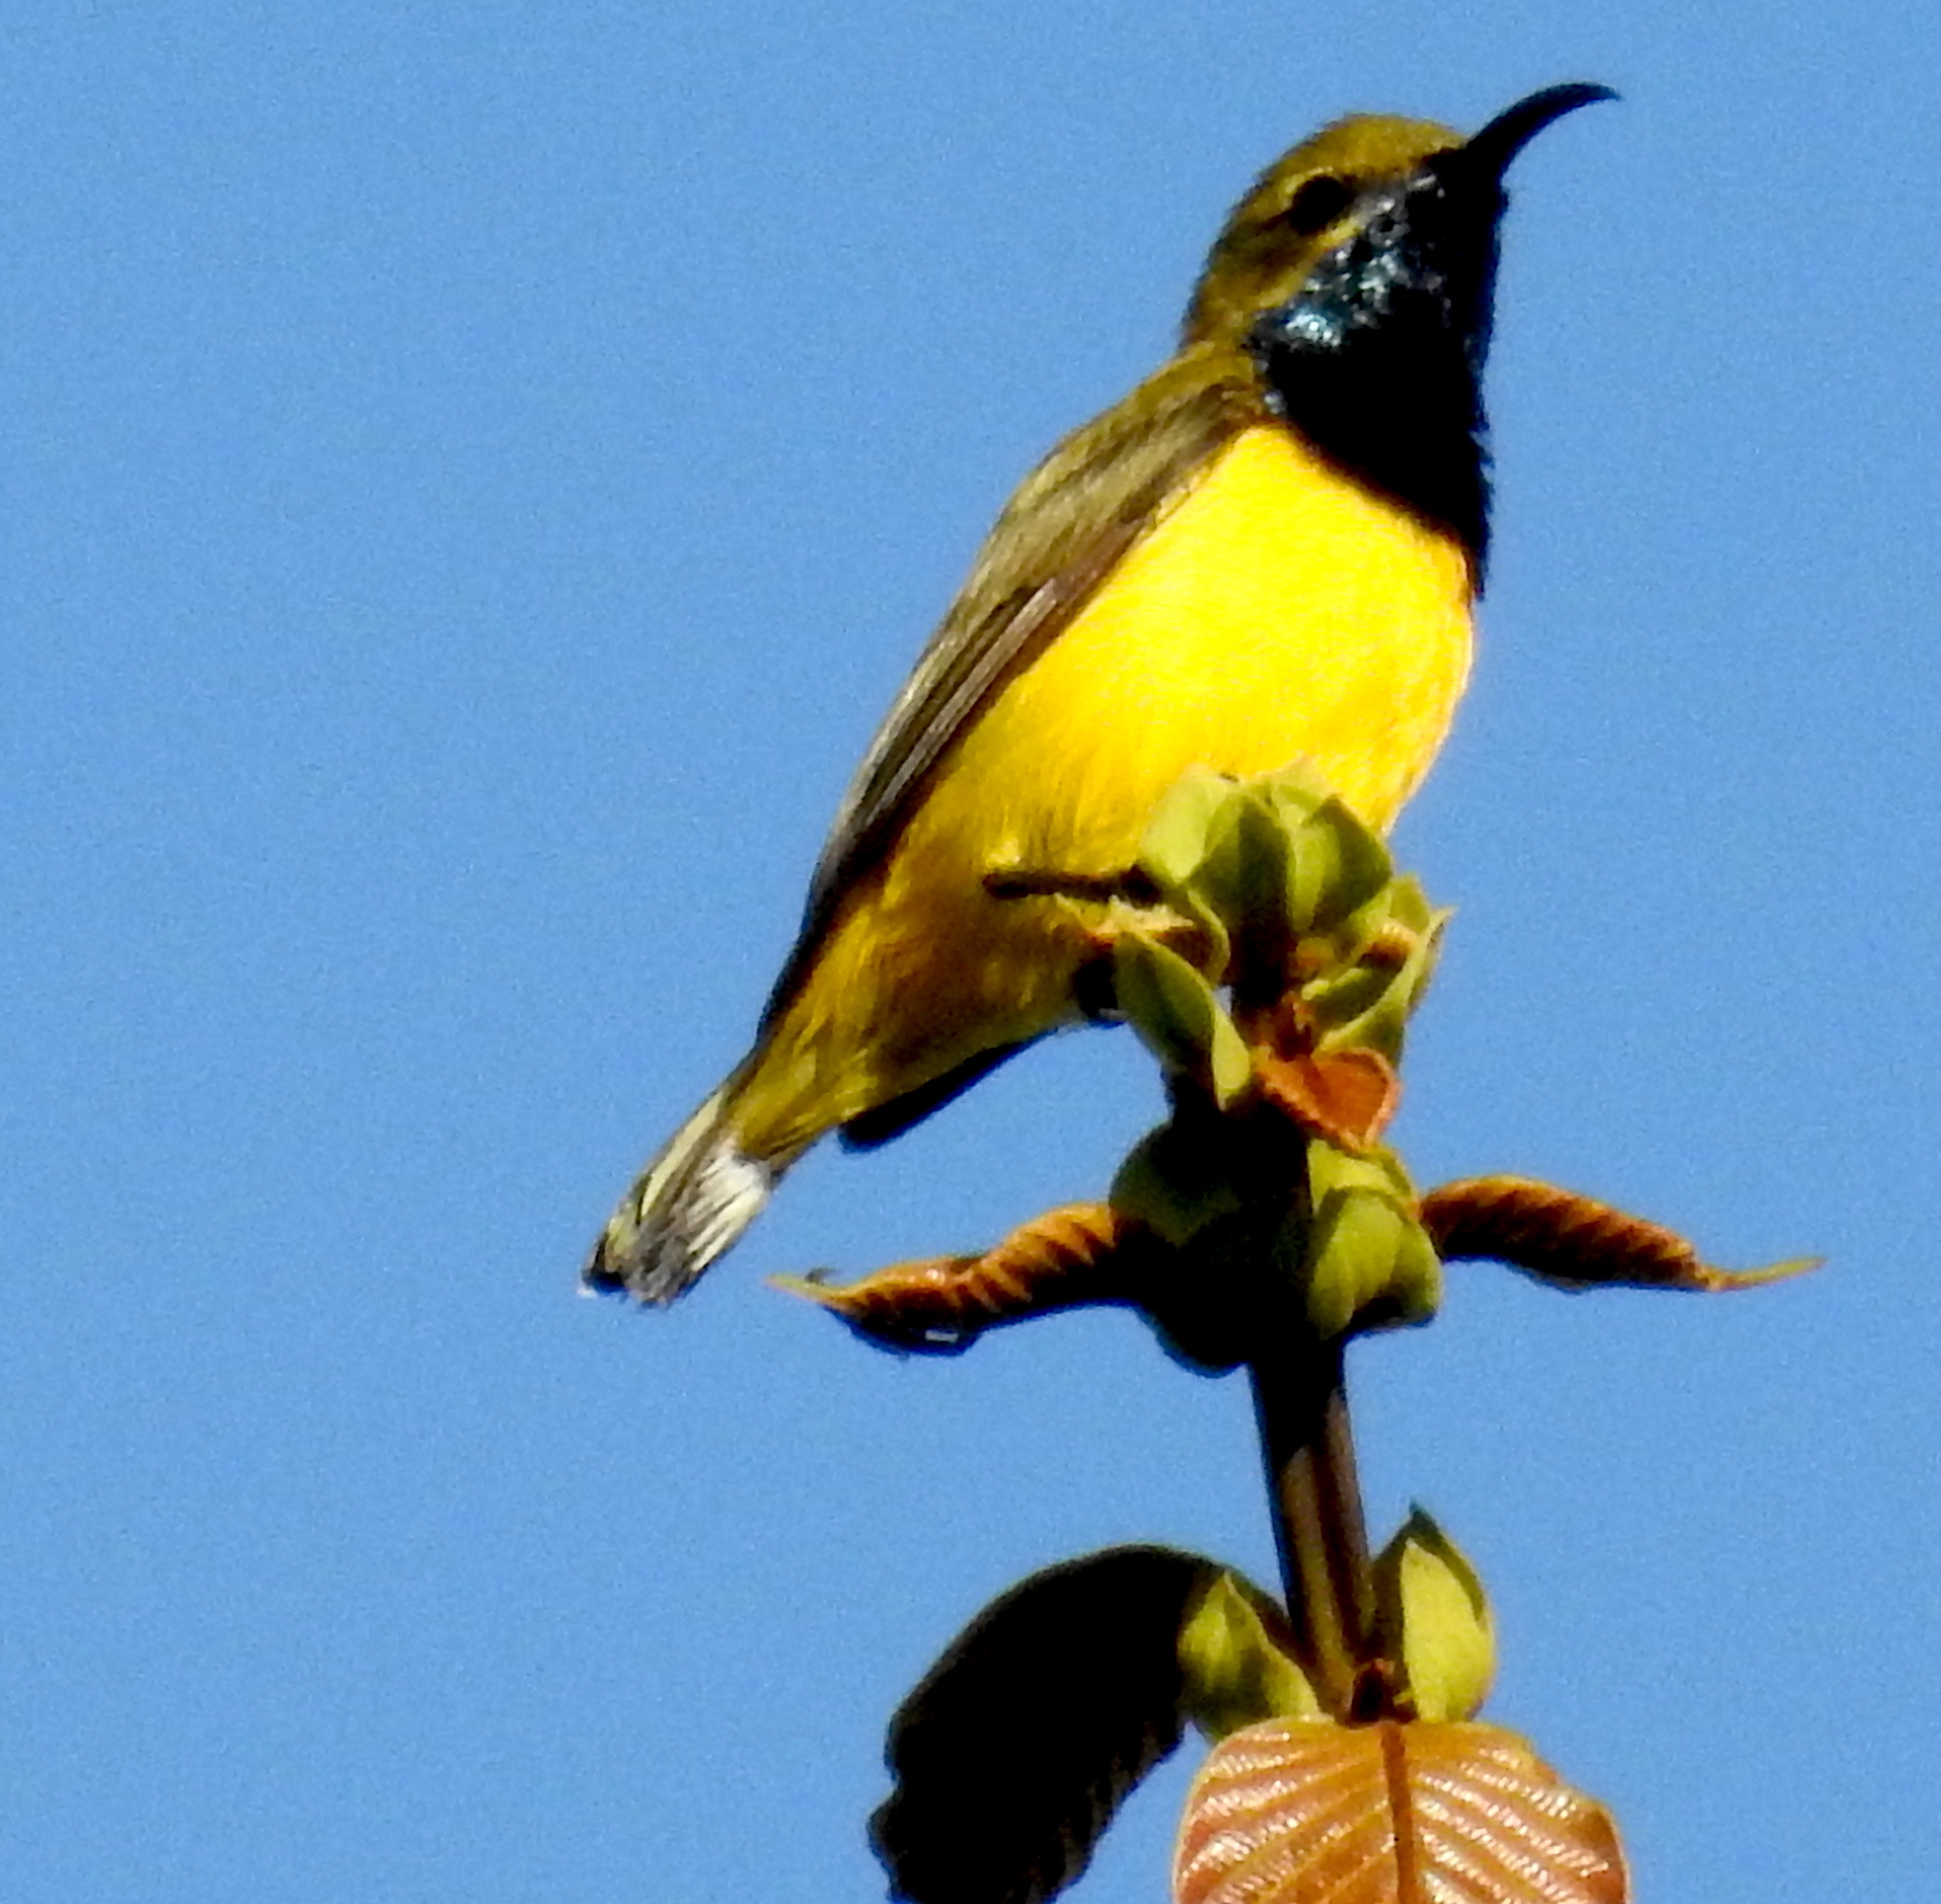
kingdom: Animalia
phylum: Chordata
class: Aves
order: Passeriformes
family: Nectariniidae
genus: Cinnyris
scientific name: Cinnyris
